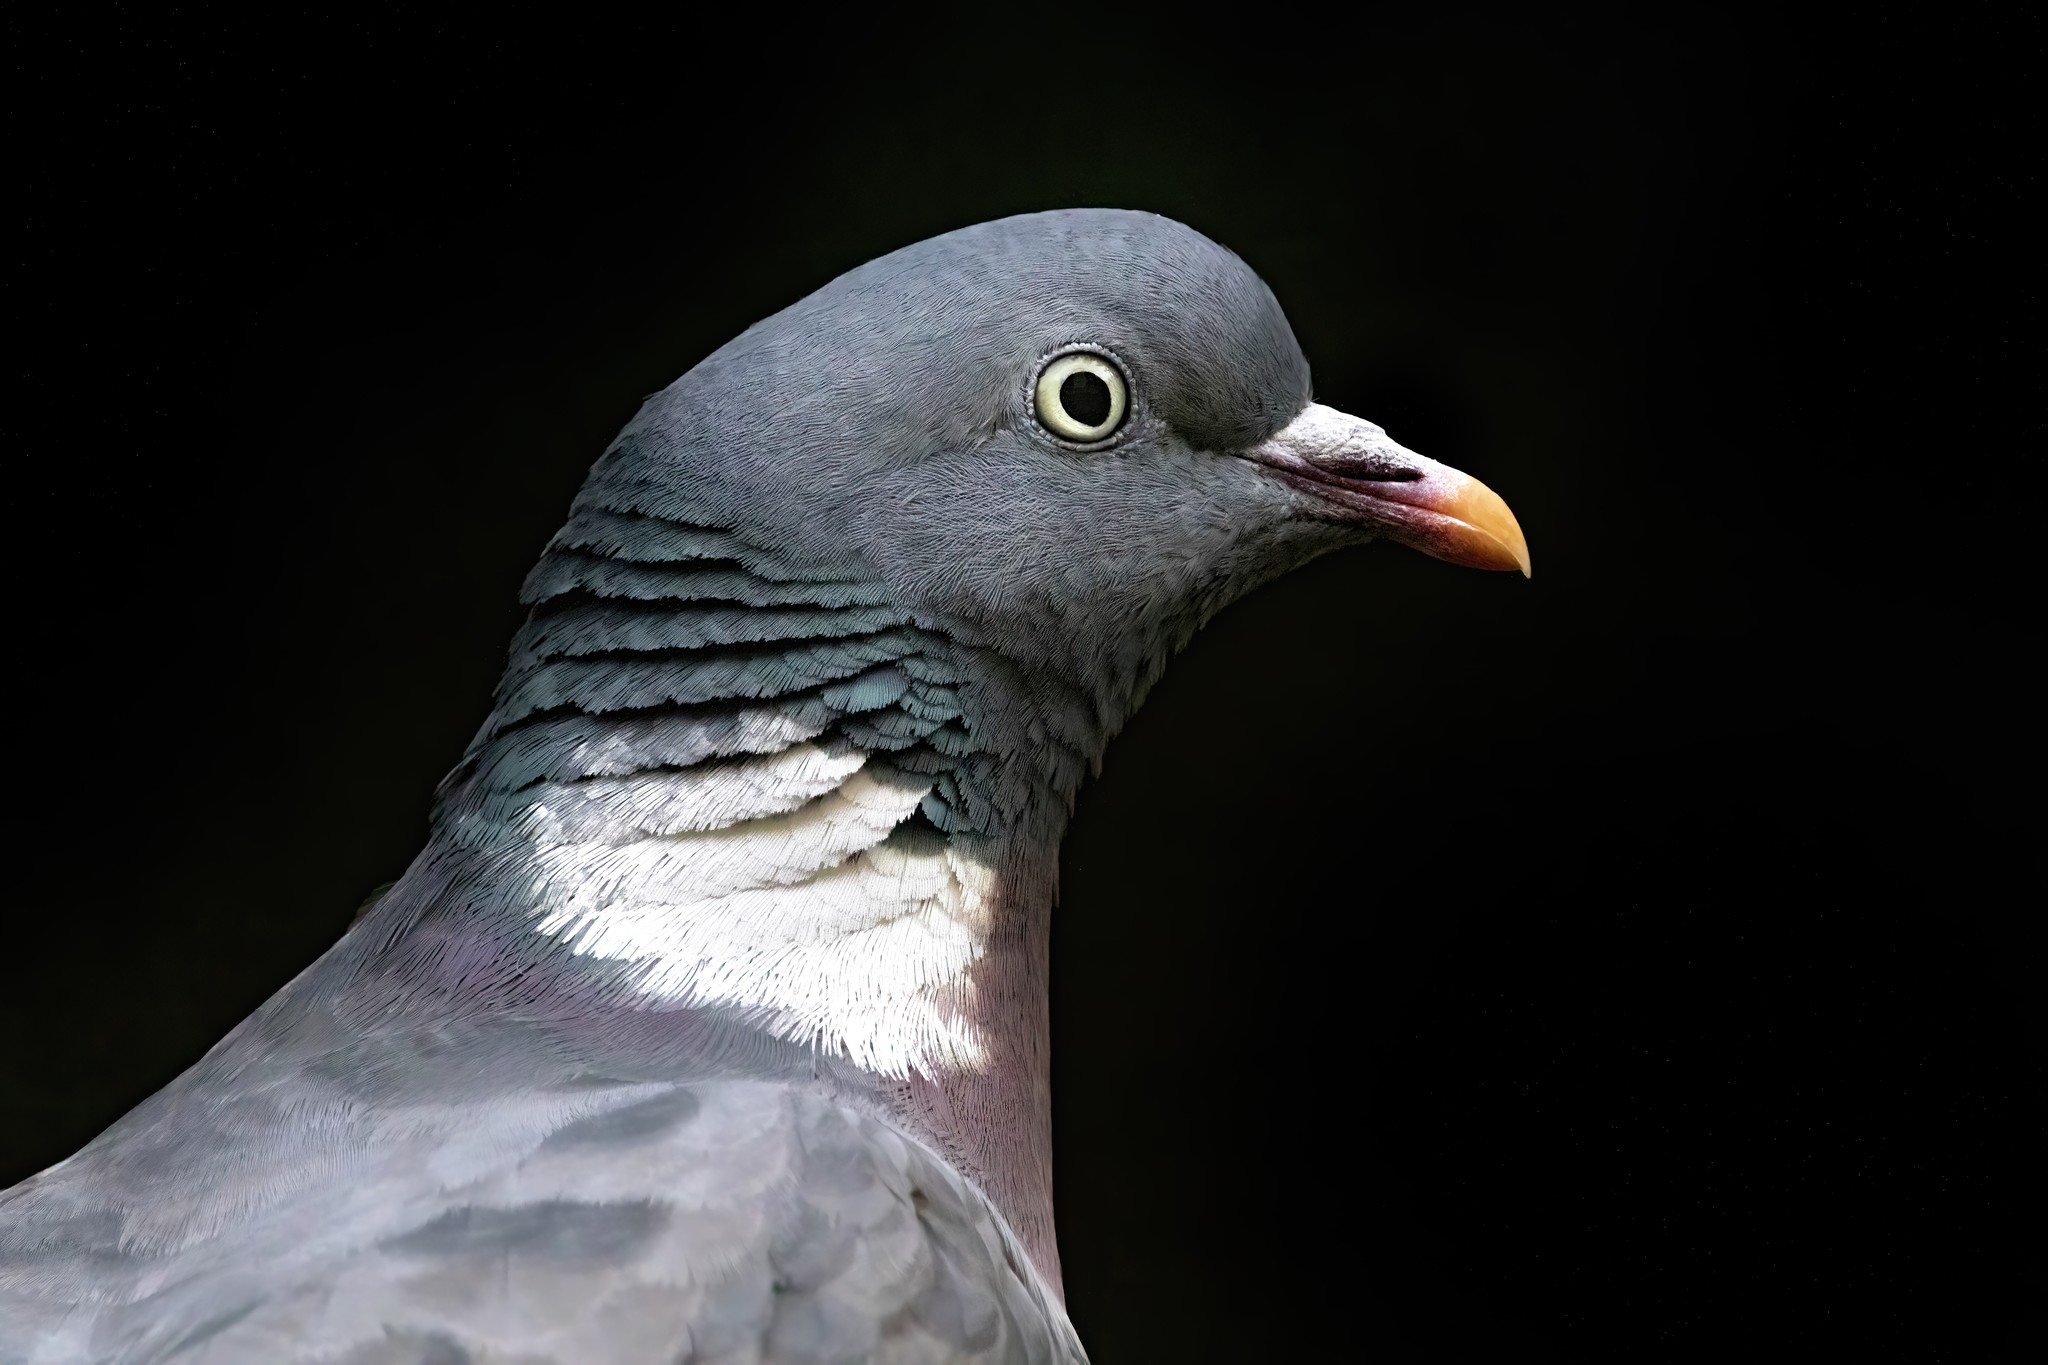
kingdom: Animalia
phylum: Chordata
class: Aves
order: Columbiformes
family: Columbidae
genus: Columba
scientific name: Columba palumbus
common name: Common wood pigeon
